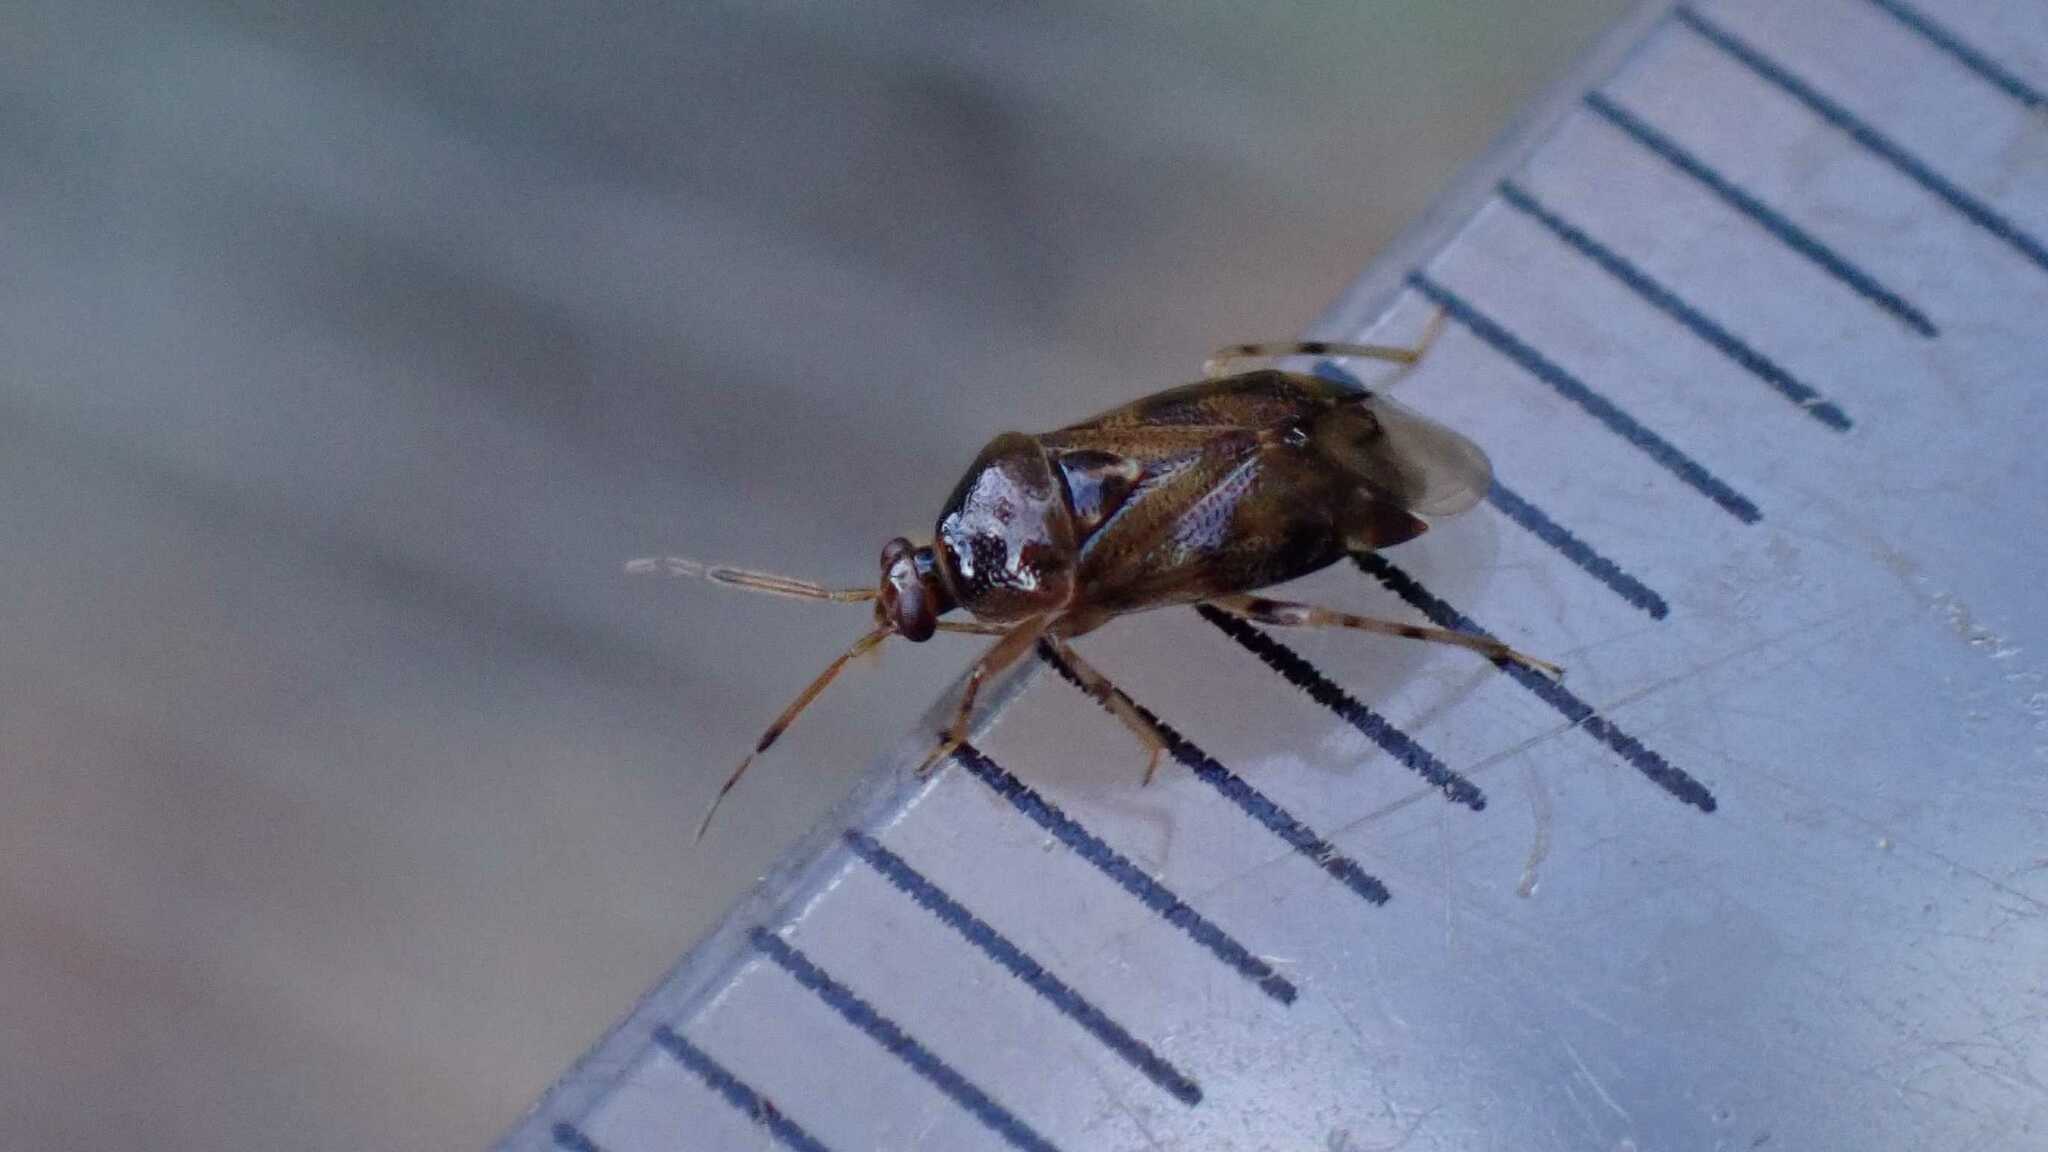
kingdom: Animalia
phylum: Arthropoda
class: Insecta
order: Hemiptera
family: Miridae
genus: Deraeocoris
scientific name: Deraeocoris lutescens
